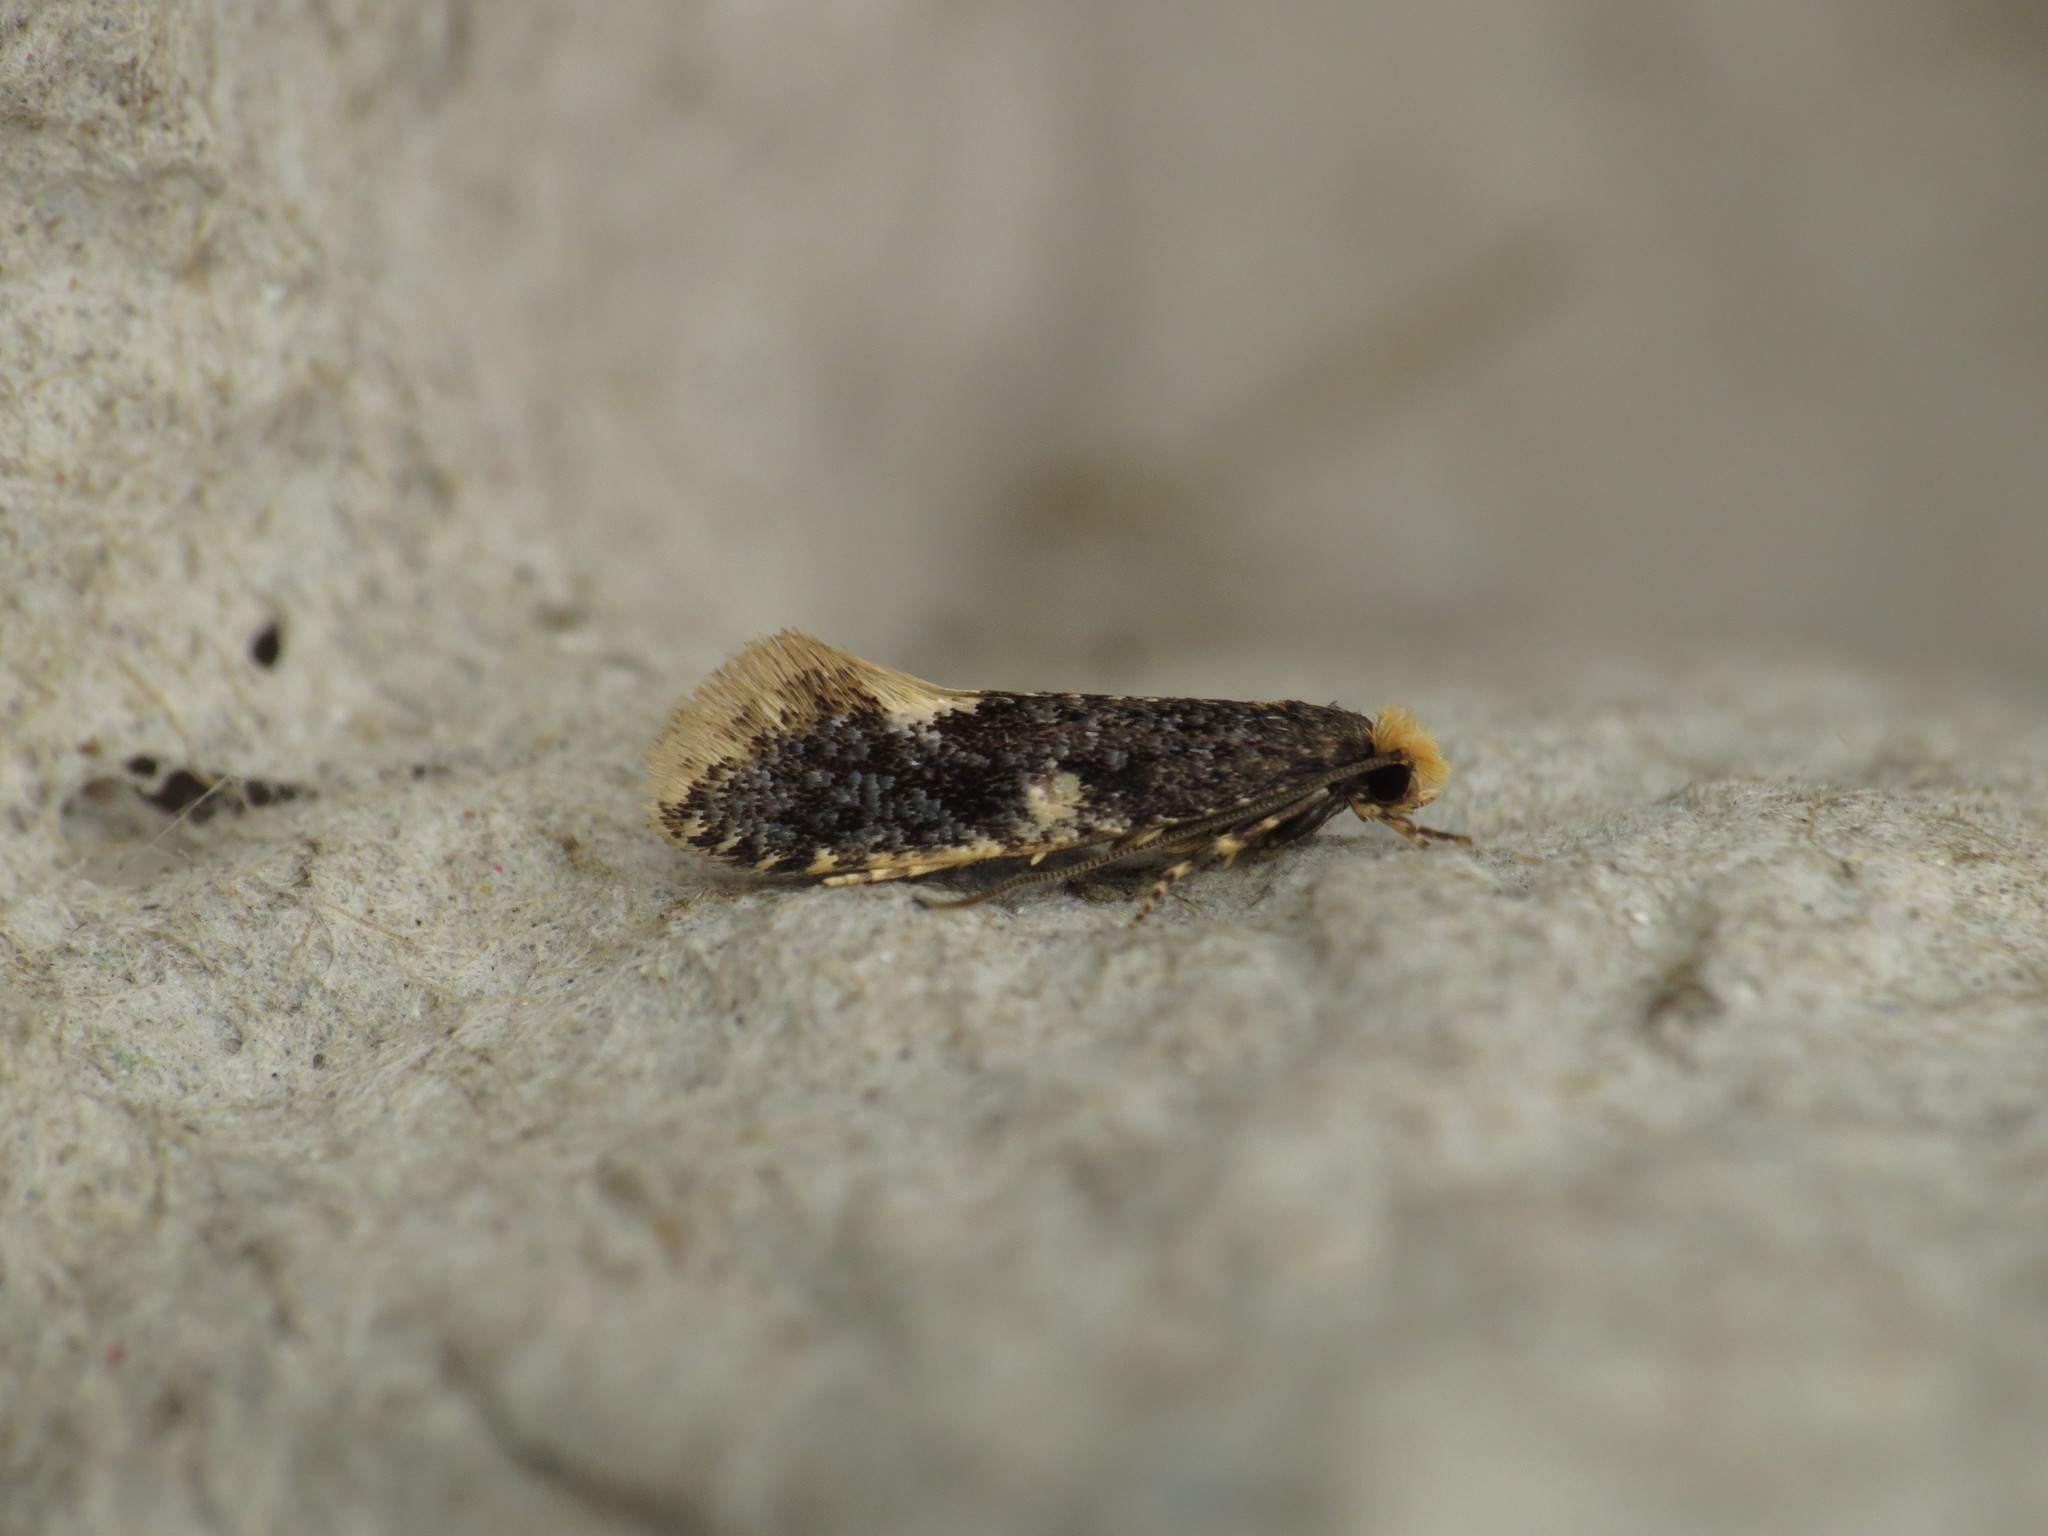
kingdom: Animalia
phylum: Arthropoda
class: Insecta
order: Lepidoptera
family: Tineidae
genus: Monopis
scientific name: Monopis weaverella
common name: Carrion moth
